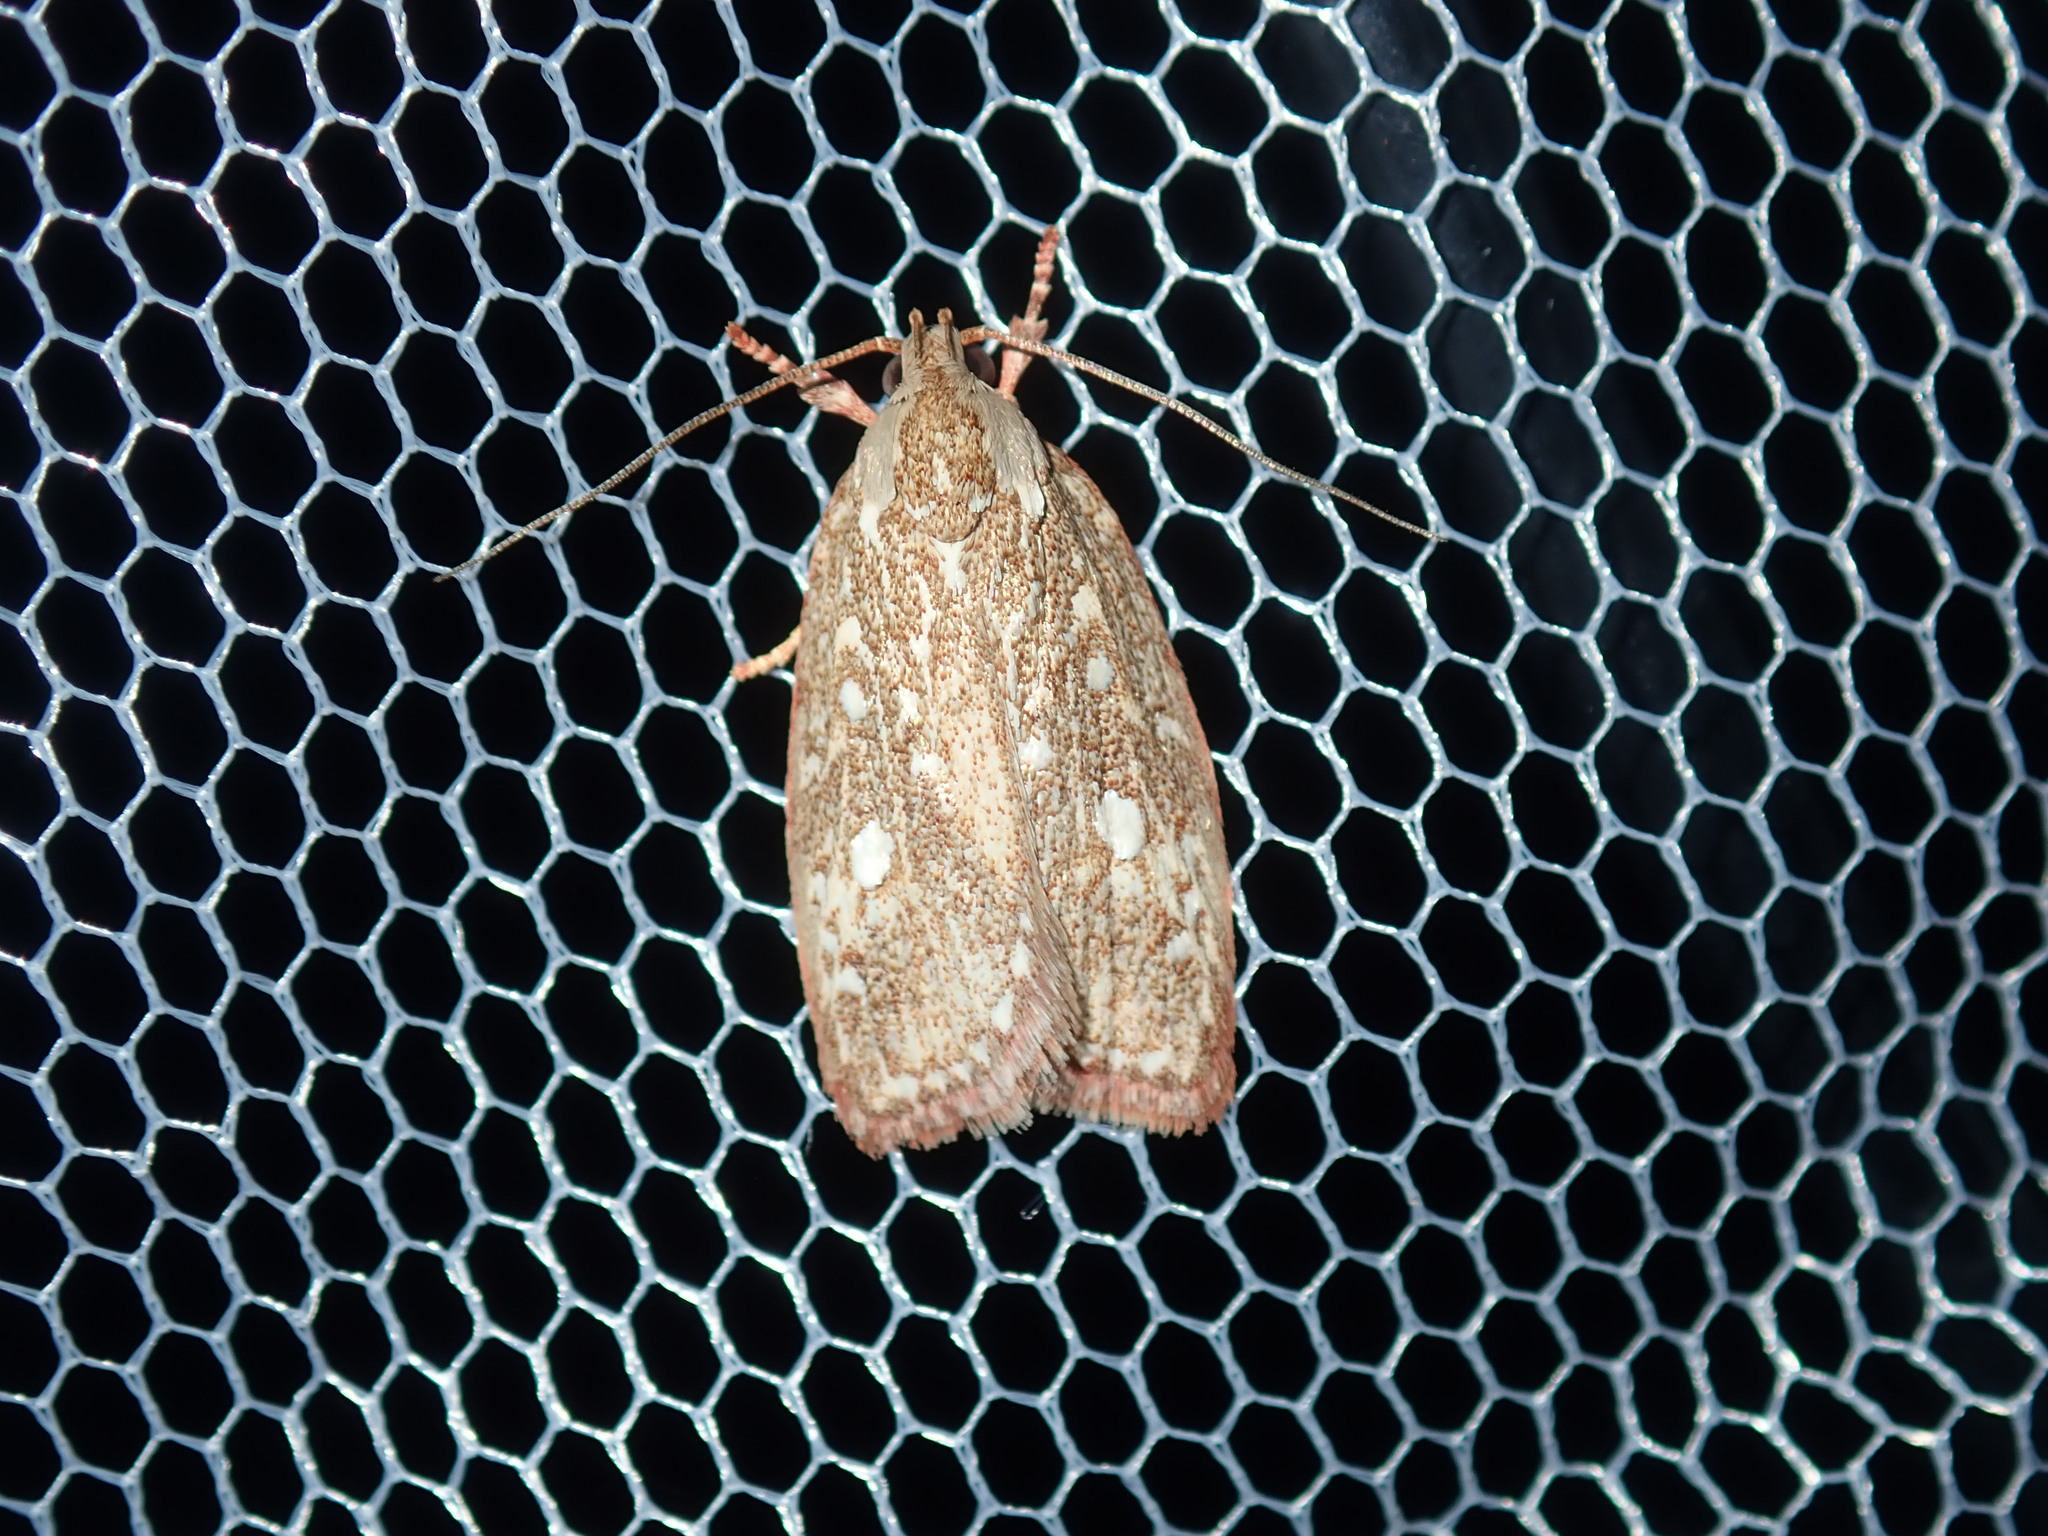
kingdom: Animalia
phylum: Arthropoda
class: Insecta
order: Lepidoptera
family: Oecophoridae
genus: Euchaetis
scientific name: Euchaetis metallota
